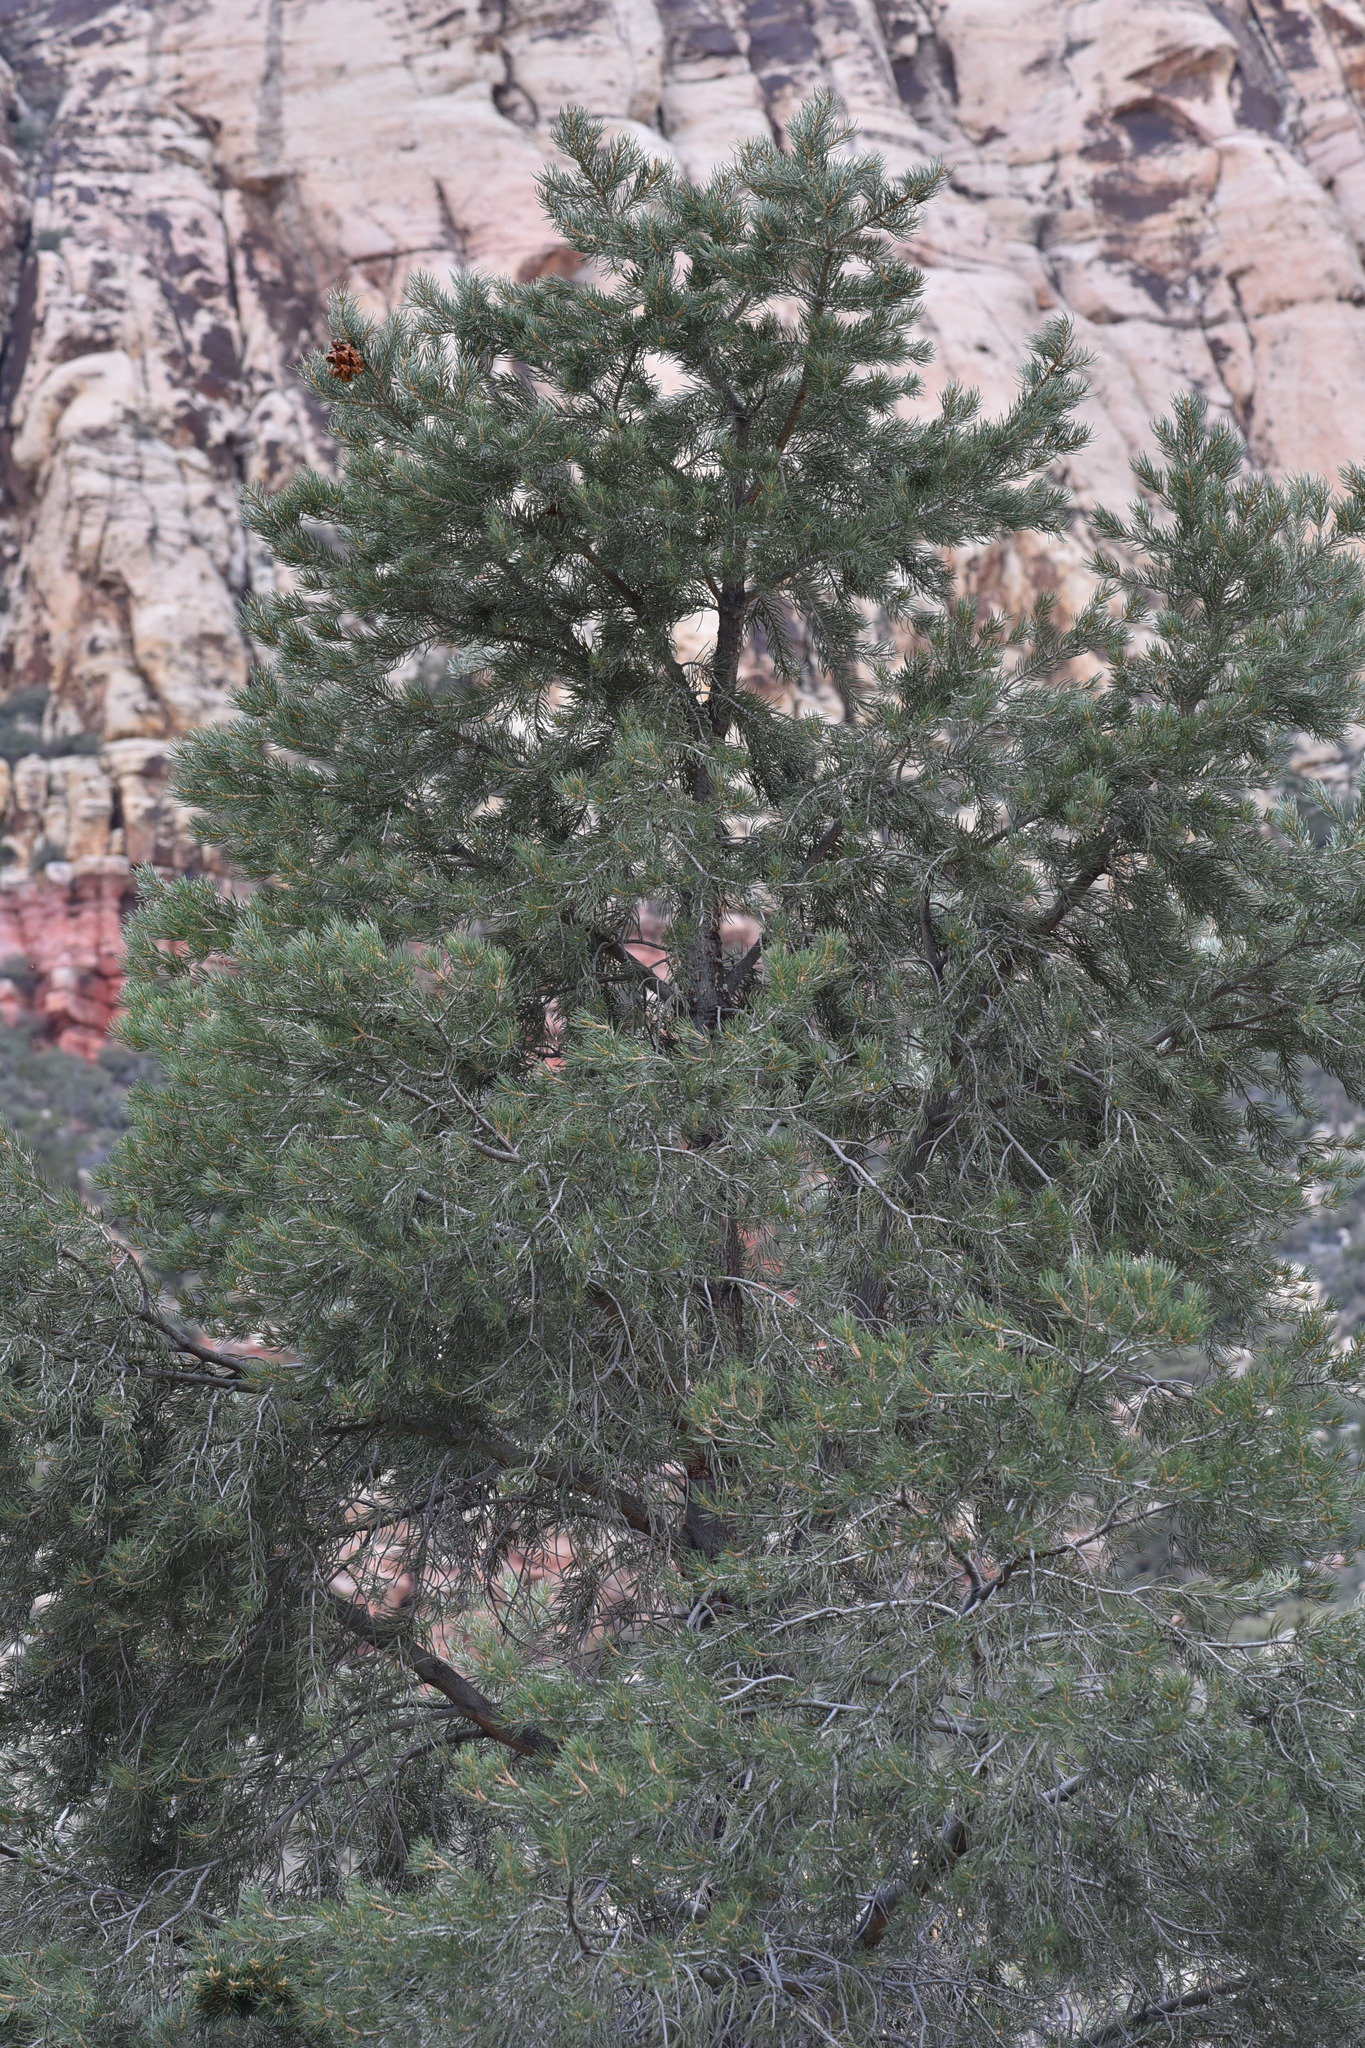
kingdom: Plantae
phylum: Tracheophyta
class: Pinopsida
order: Pinales
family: Pinaceae
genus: Pinus
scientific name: Pinus monophylla
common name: One-leaved nut pine
